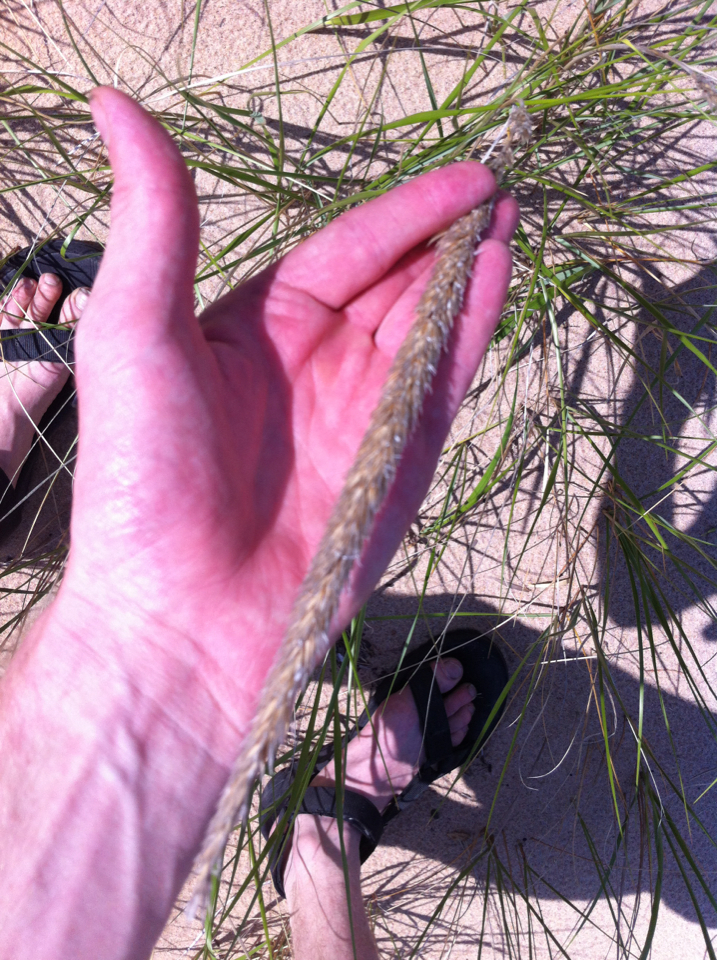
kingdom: Plantae
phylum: Tracheophyta
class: Liliopsida
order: Poales
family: Poaceae
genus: Calamagrostis
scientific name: Calamagrostis breviligulata
